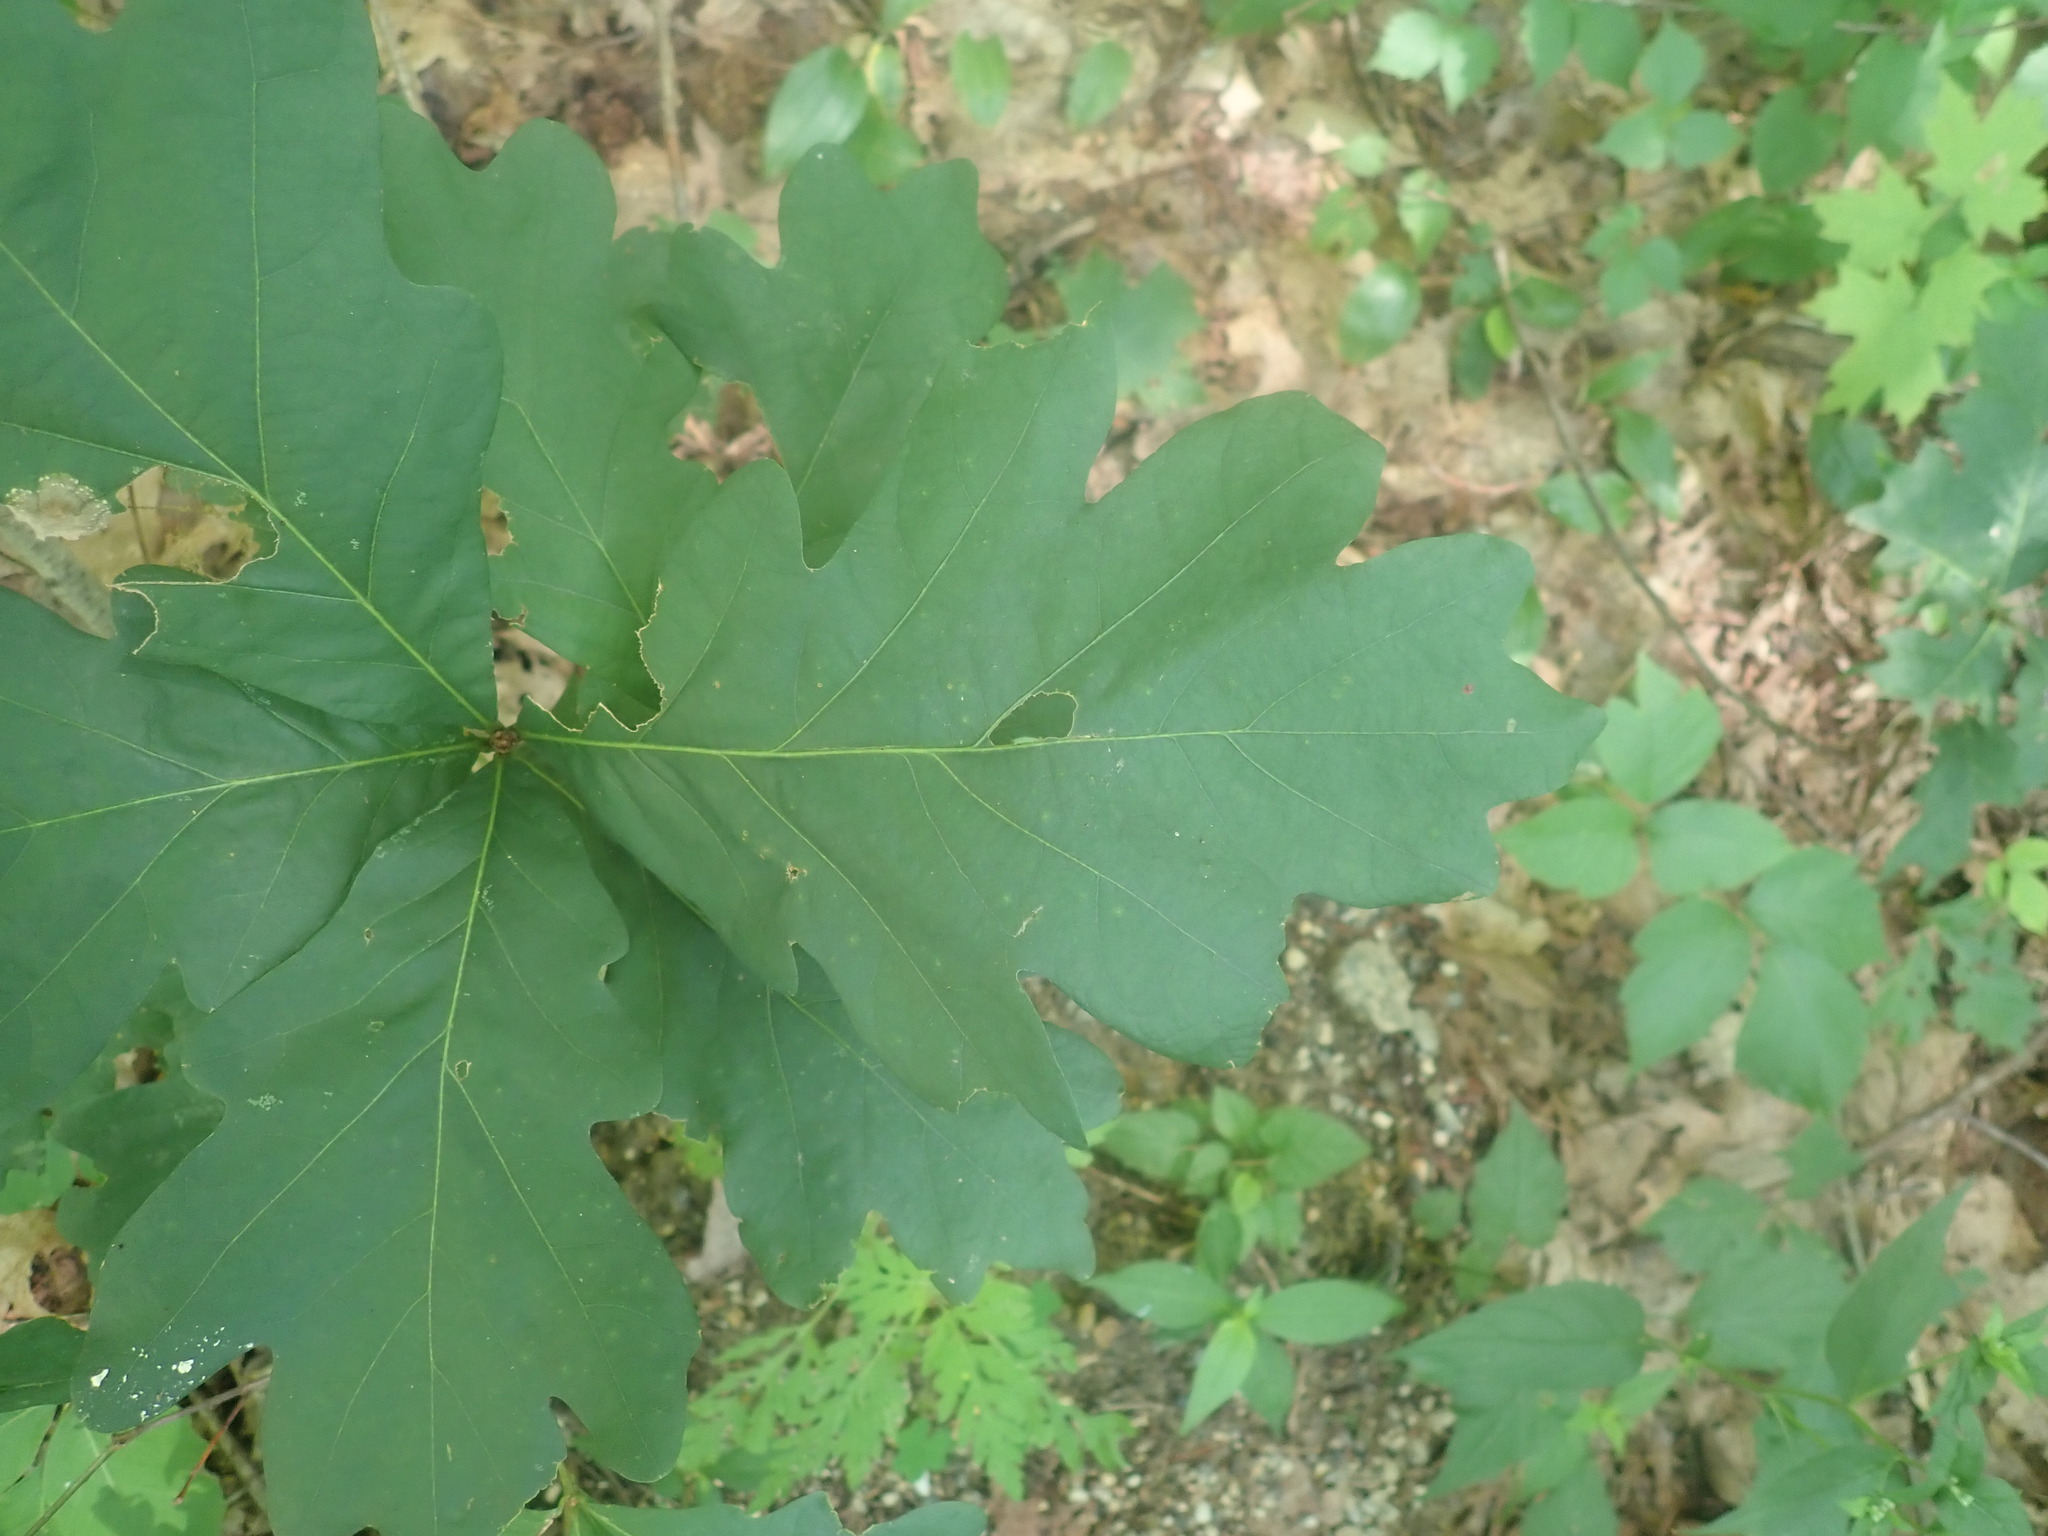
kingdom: Plantae
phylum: Tracheophyta
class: Magnoliopsida
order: Fagales
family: Fagaceae
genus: Quercus
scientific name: Quercus alba
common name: White oak
